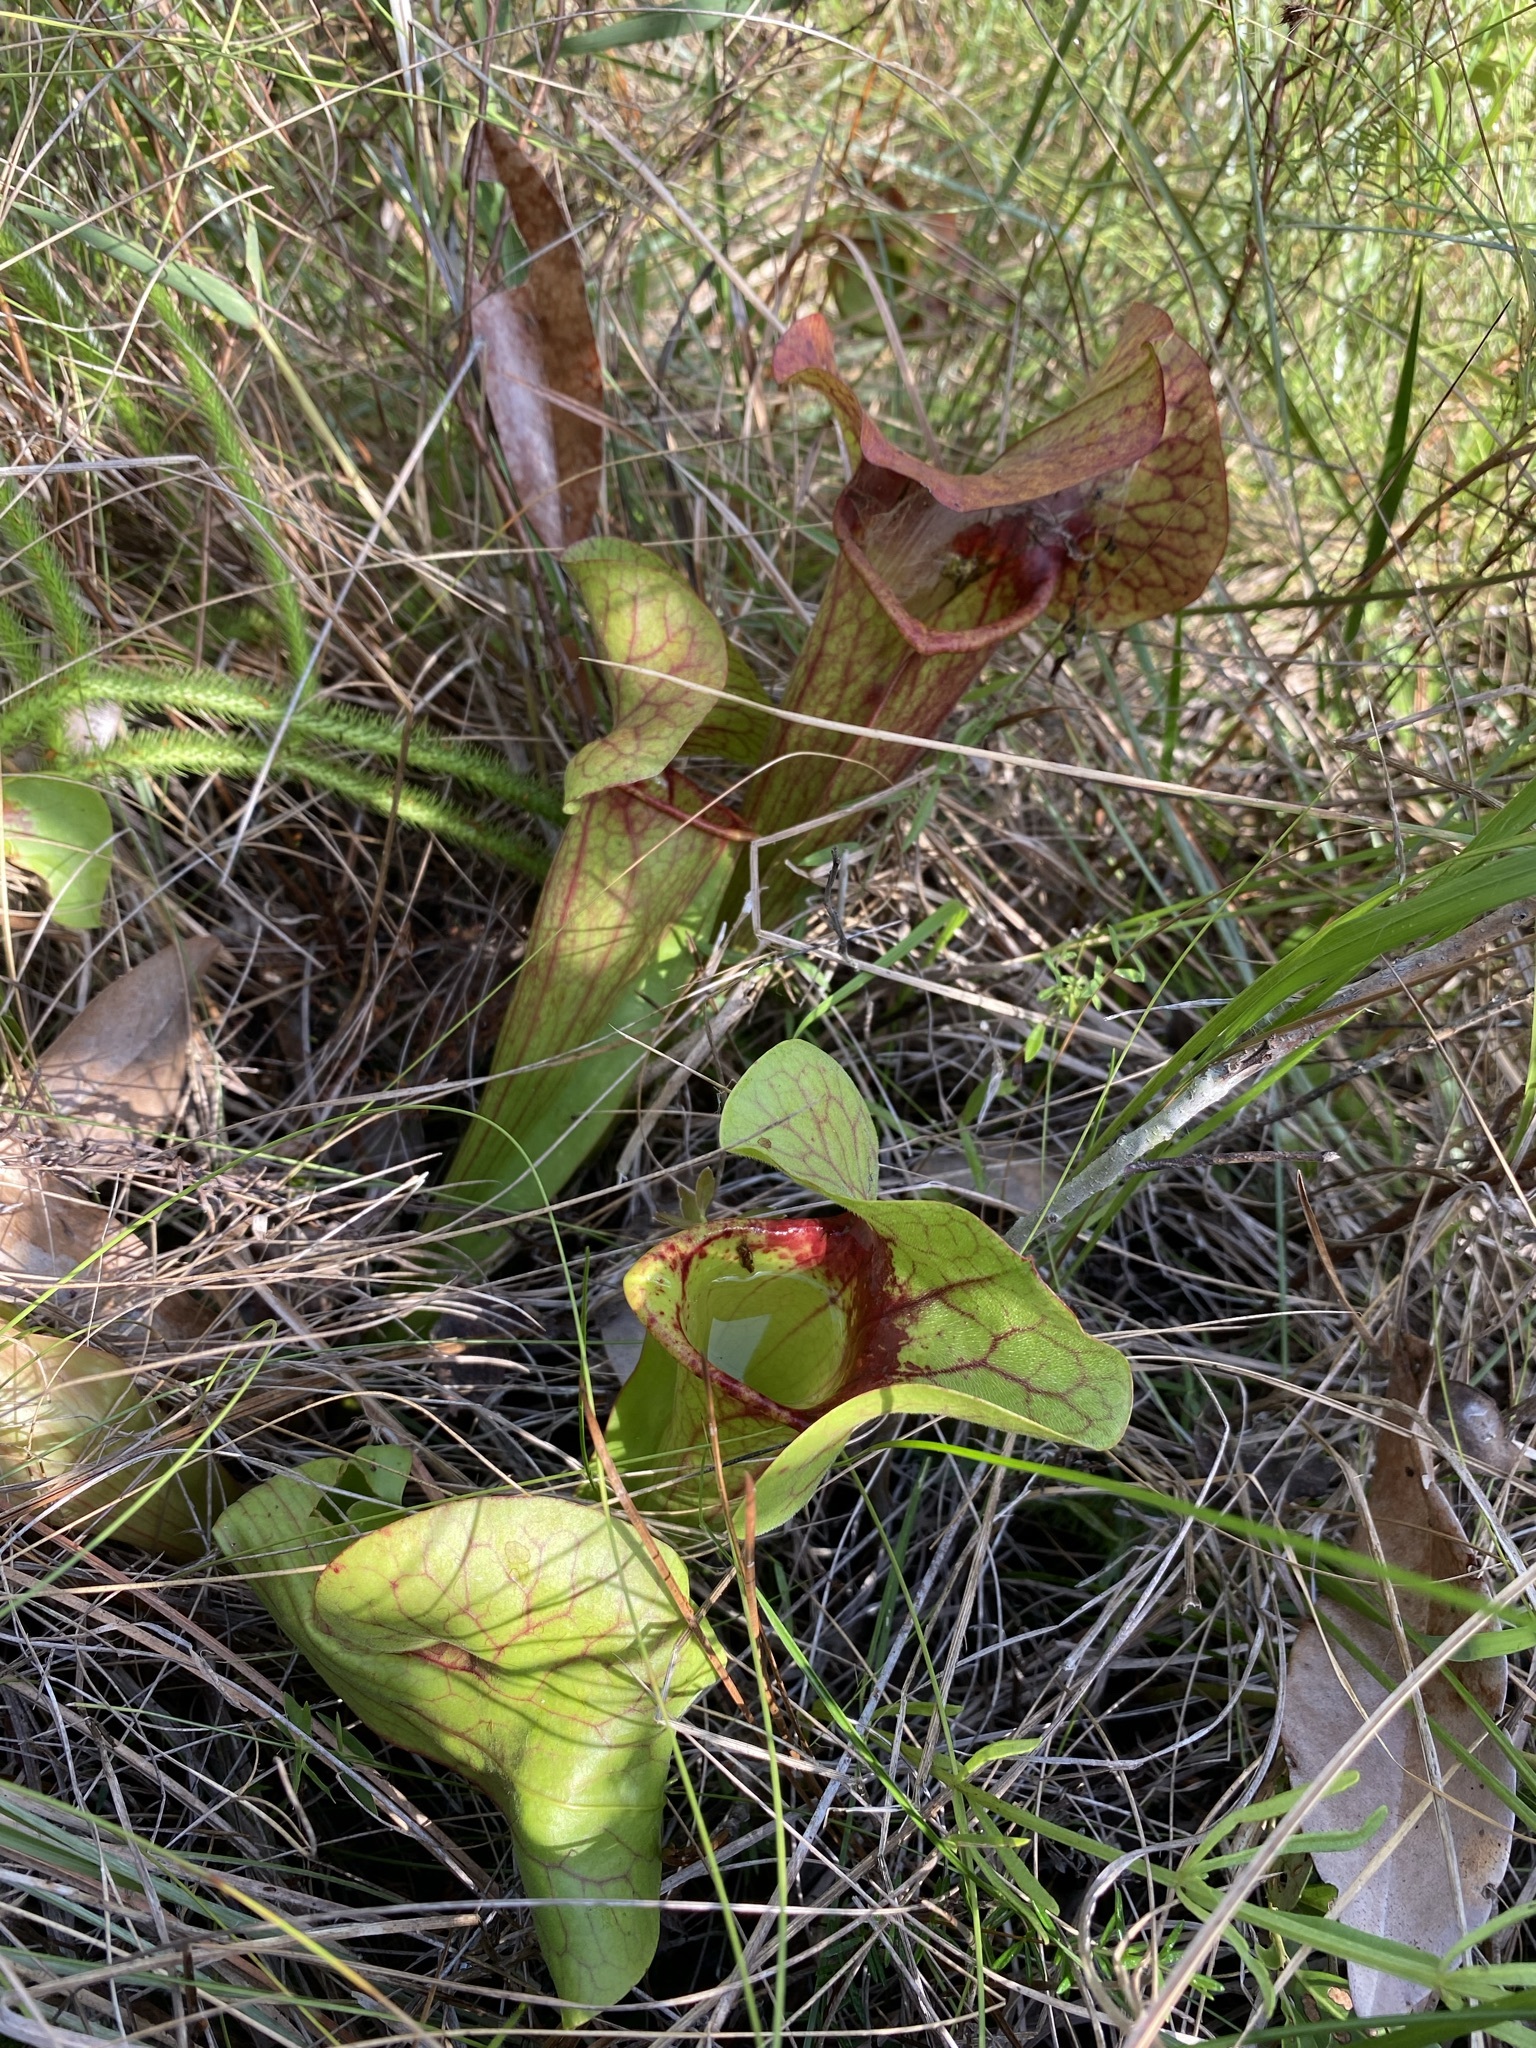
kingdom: Plantae
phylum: Tracheophyta
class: Magnoliopsida
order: Ericales
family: Sarraceniaceae
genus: Sarracenia
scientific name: Sarracenia naczii
